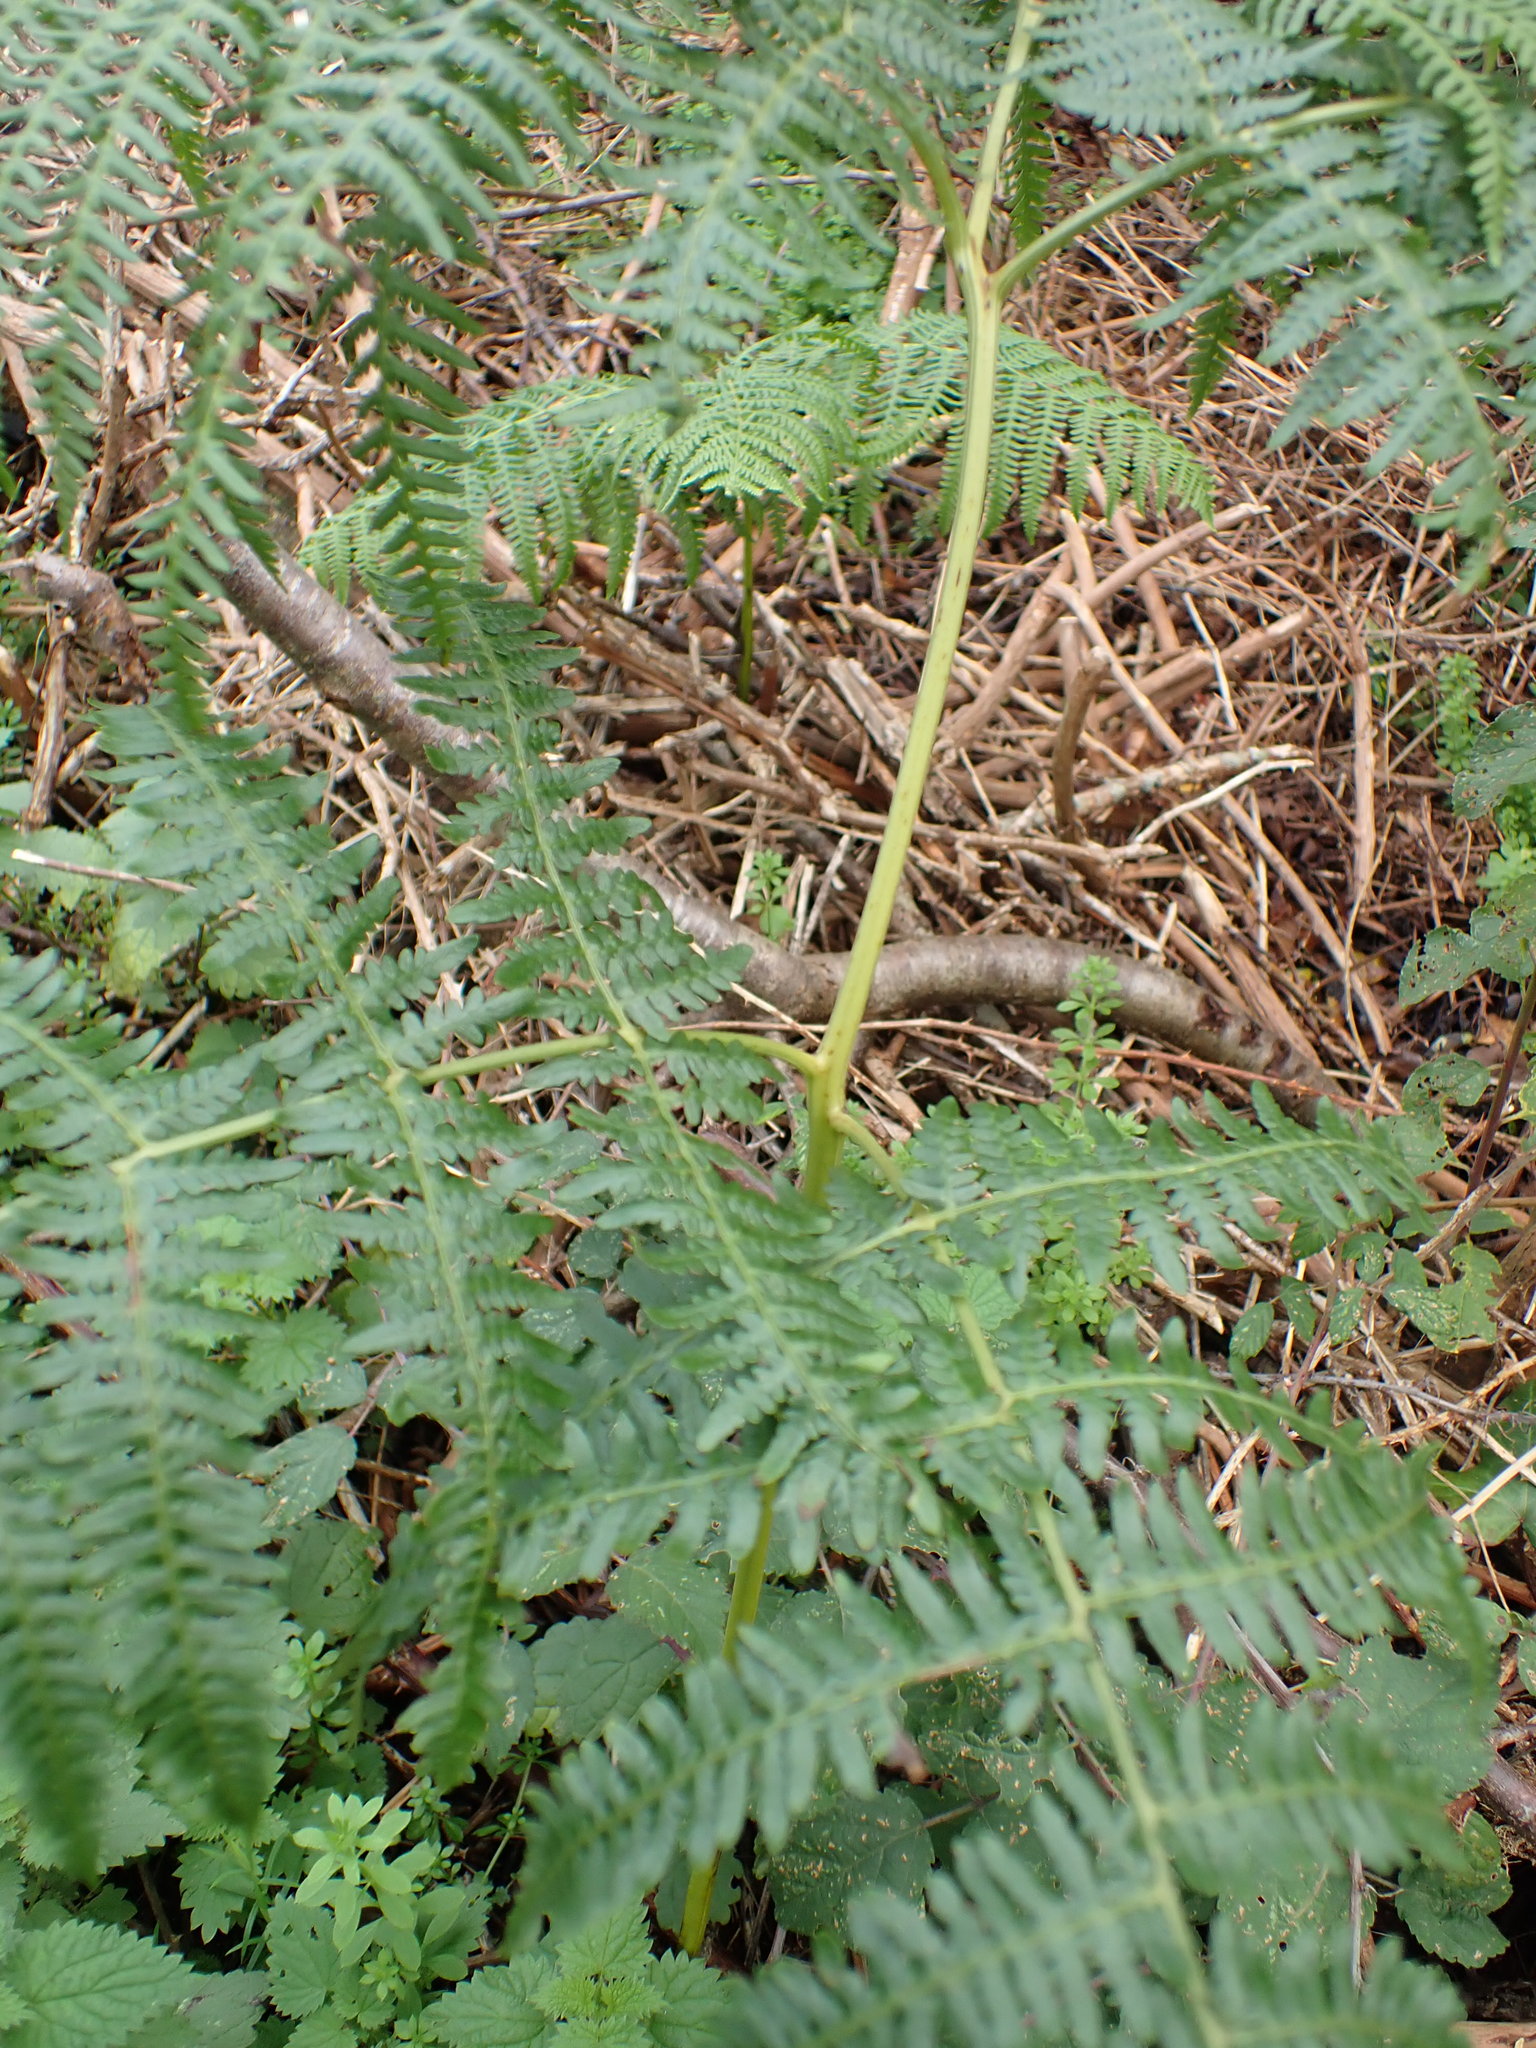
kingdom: Plantae
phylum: Tracheophyta
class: Polypodiopsida
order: Polypodiales
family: Dennstaedtiaceae
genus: Pteridium
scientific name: Pteridium aquilinum
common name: Bracken
